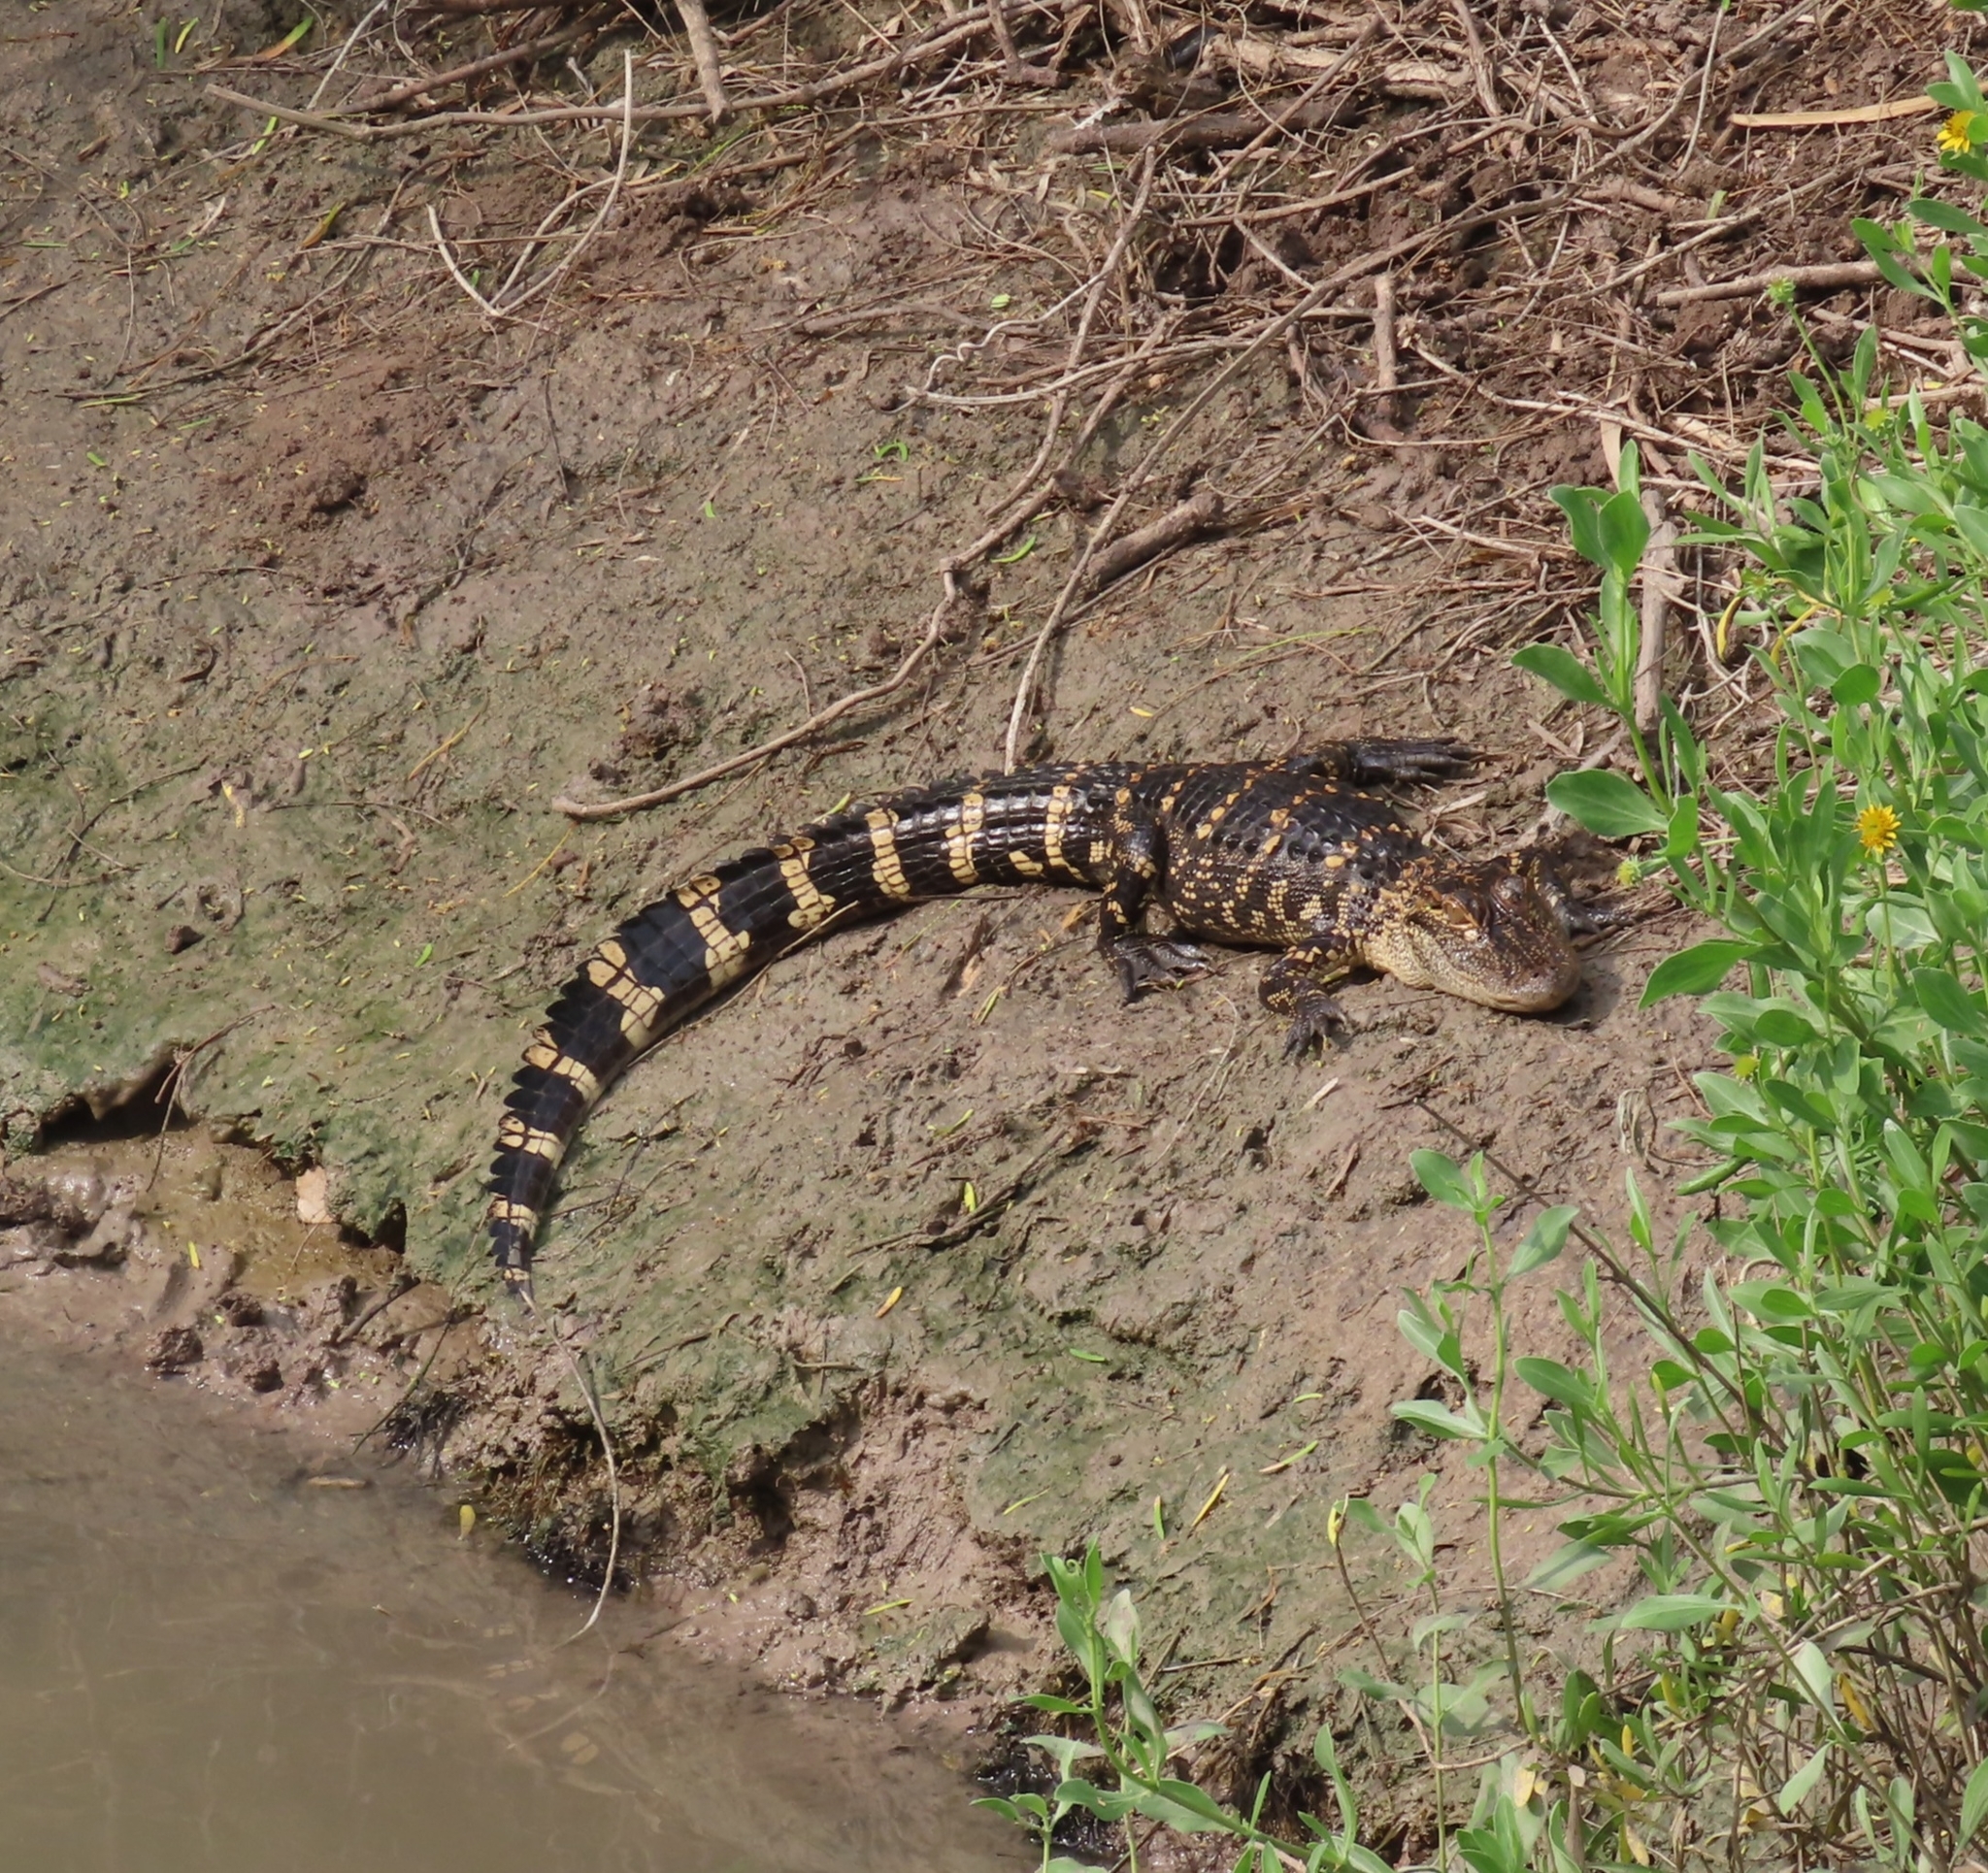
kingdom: Animalia
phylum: Chordata
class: Crocodylia
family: Alligatoridae
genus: Alligator
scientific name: Alligator mississippiensis
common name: American alligator
